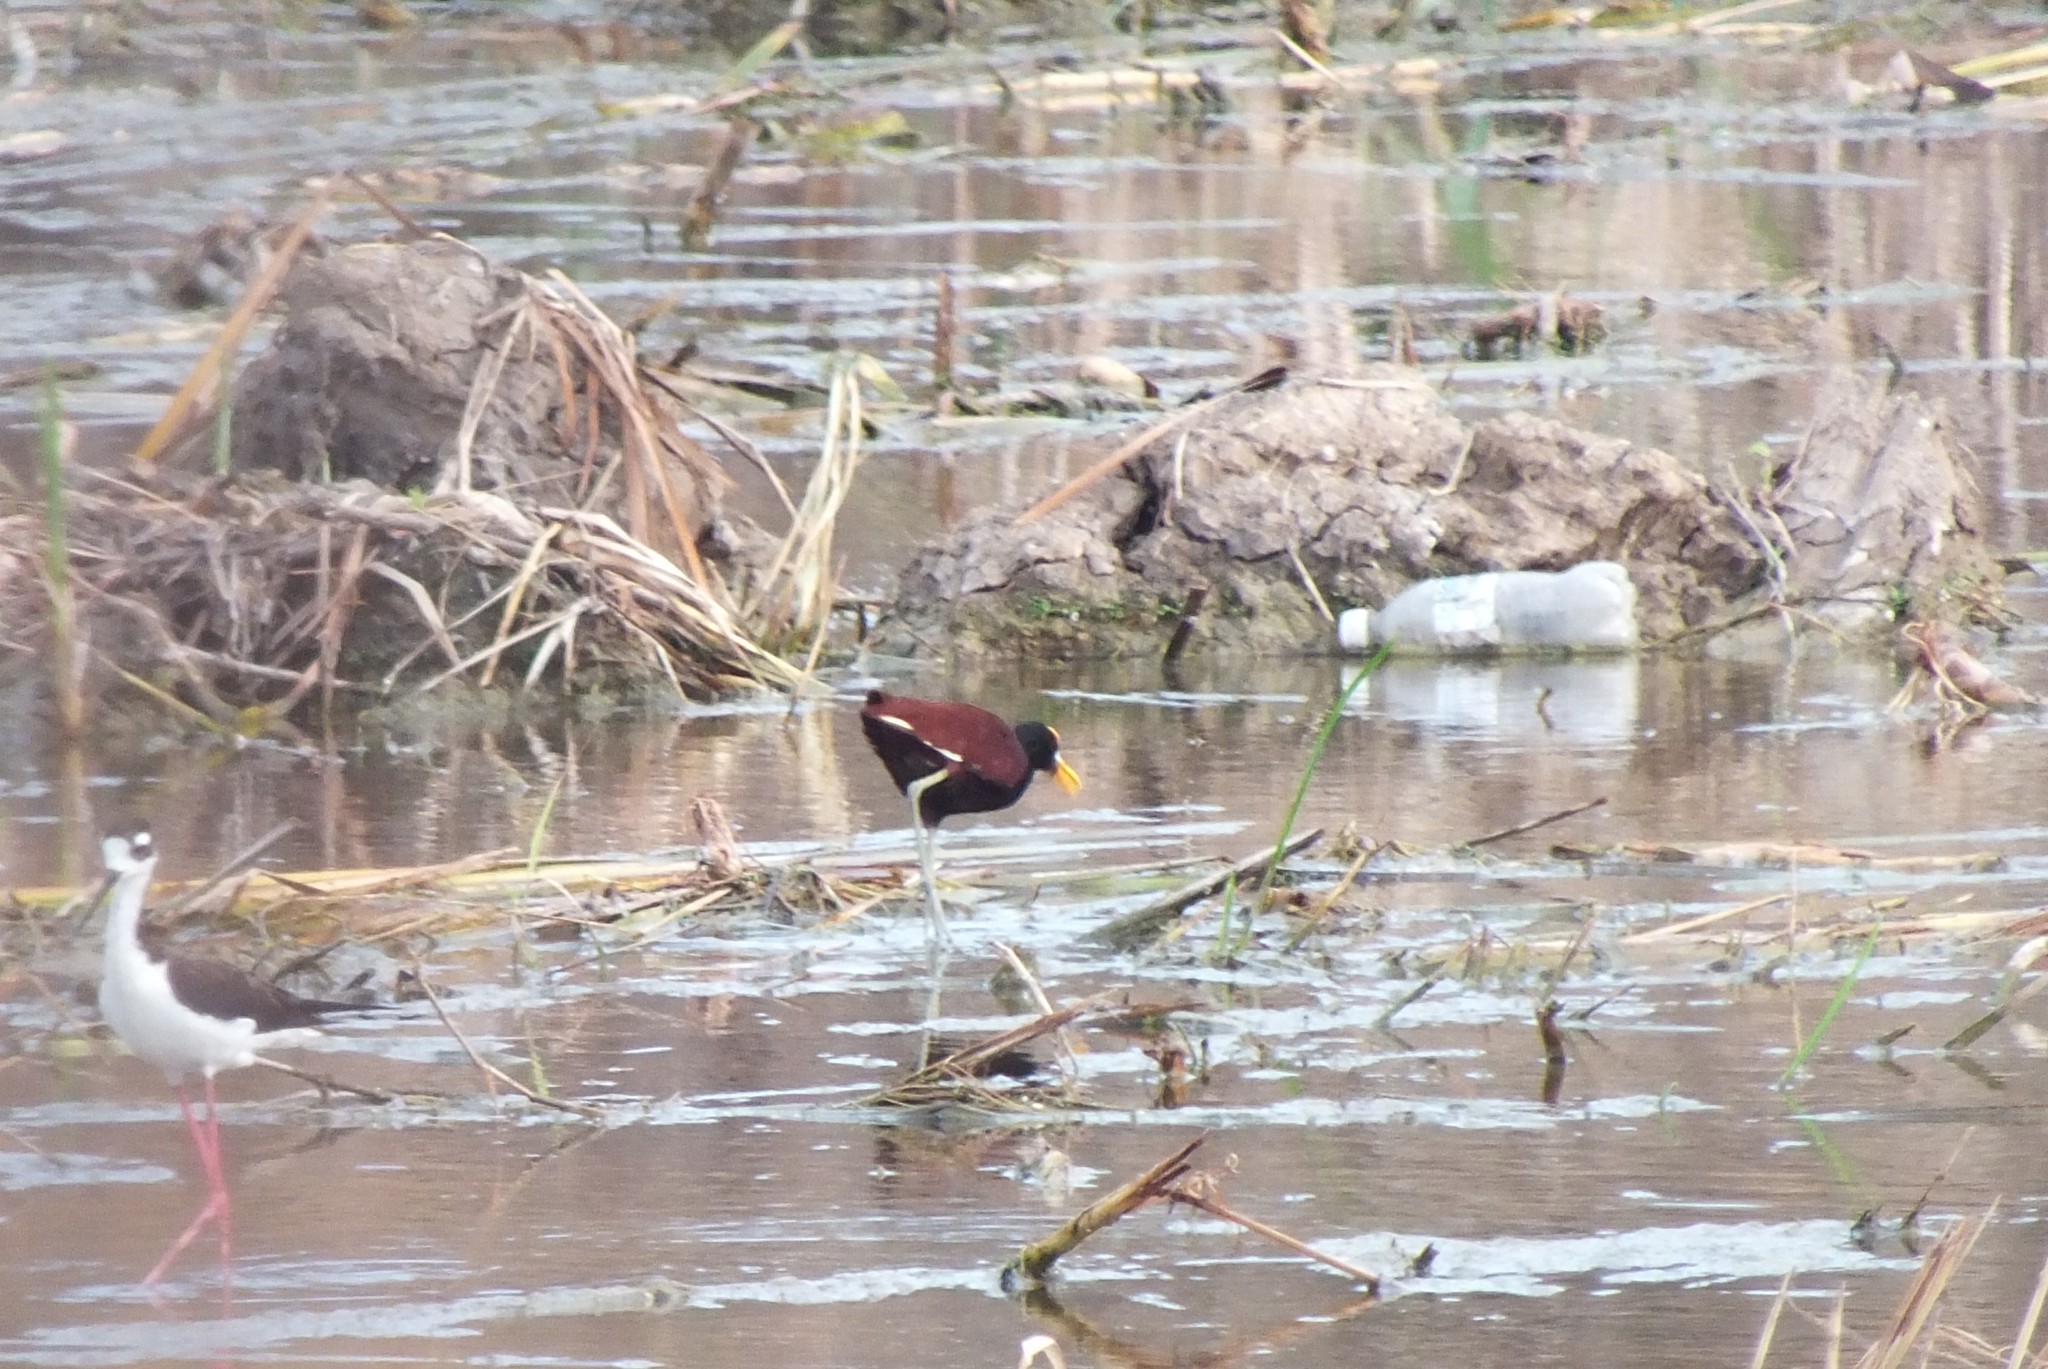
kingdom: Animalia
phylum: Chordata
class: Aves
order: Charadriiformes
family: Jacanidae
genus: Jacana
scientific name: Jacana spinosa
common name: Northern jacana
